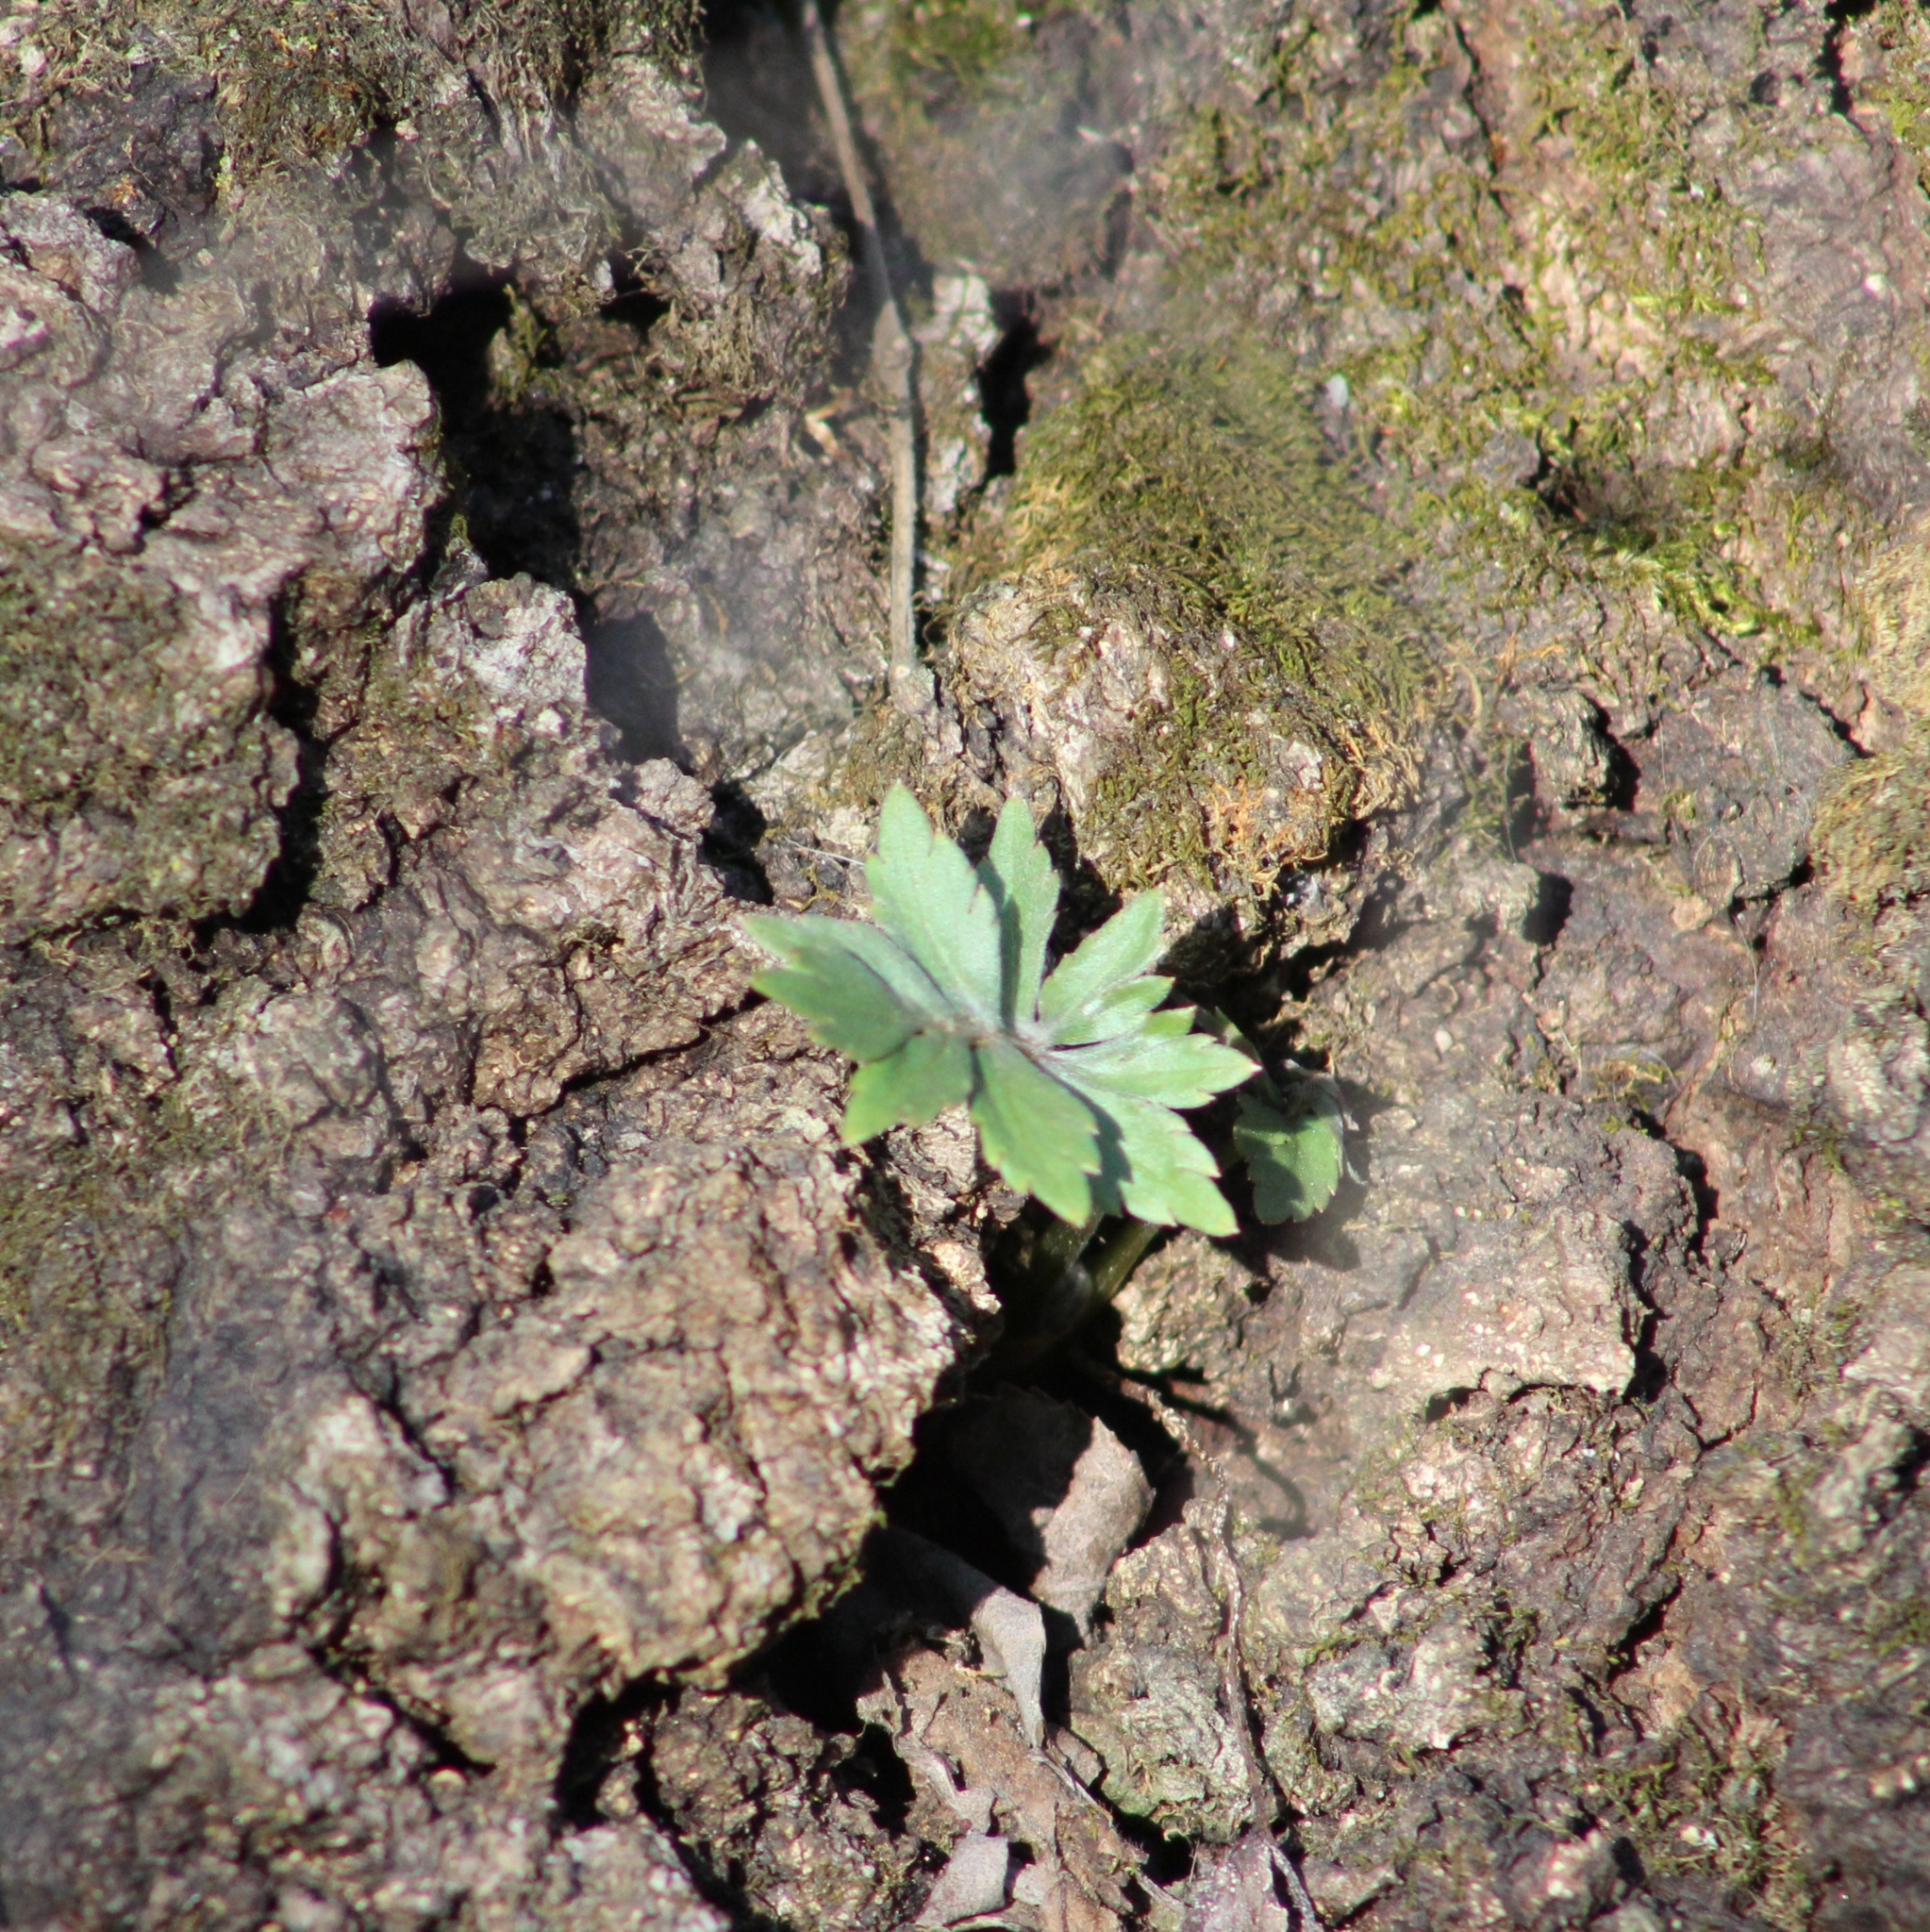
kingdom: Plantae
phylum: Tracheophyta
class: Magnoliopsida
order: Boraginales
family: Hydrophyllaceae
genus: Hydrophyllum
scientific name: Hydrophyllum virginianum
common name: Virginia waterleaf
